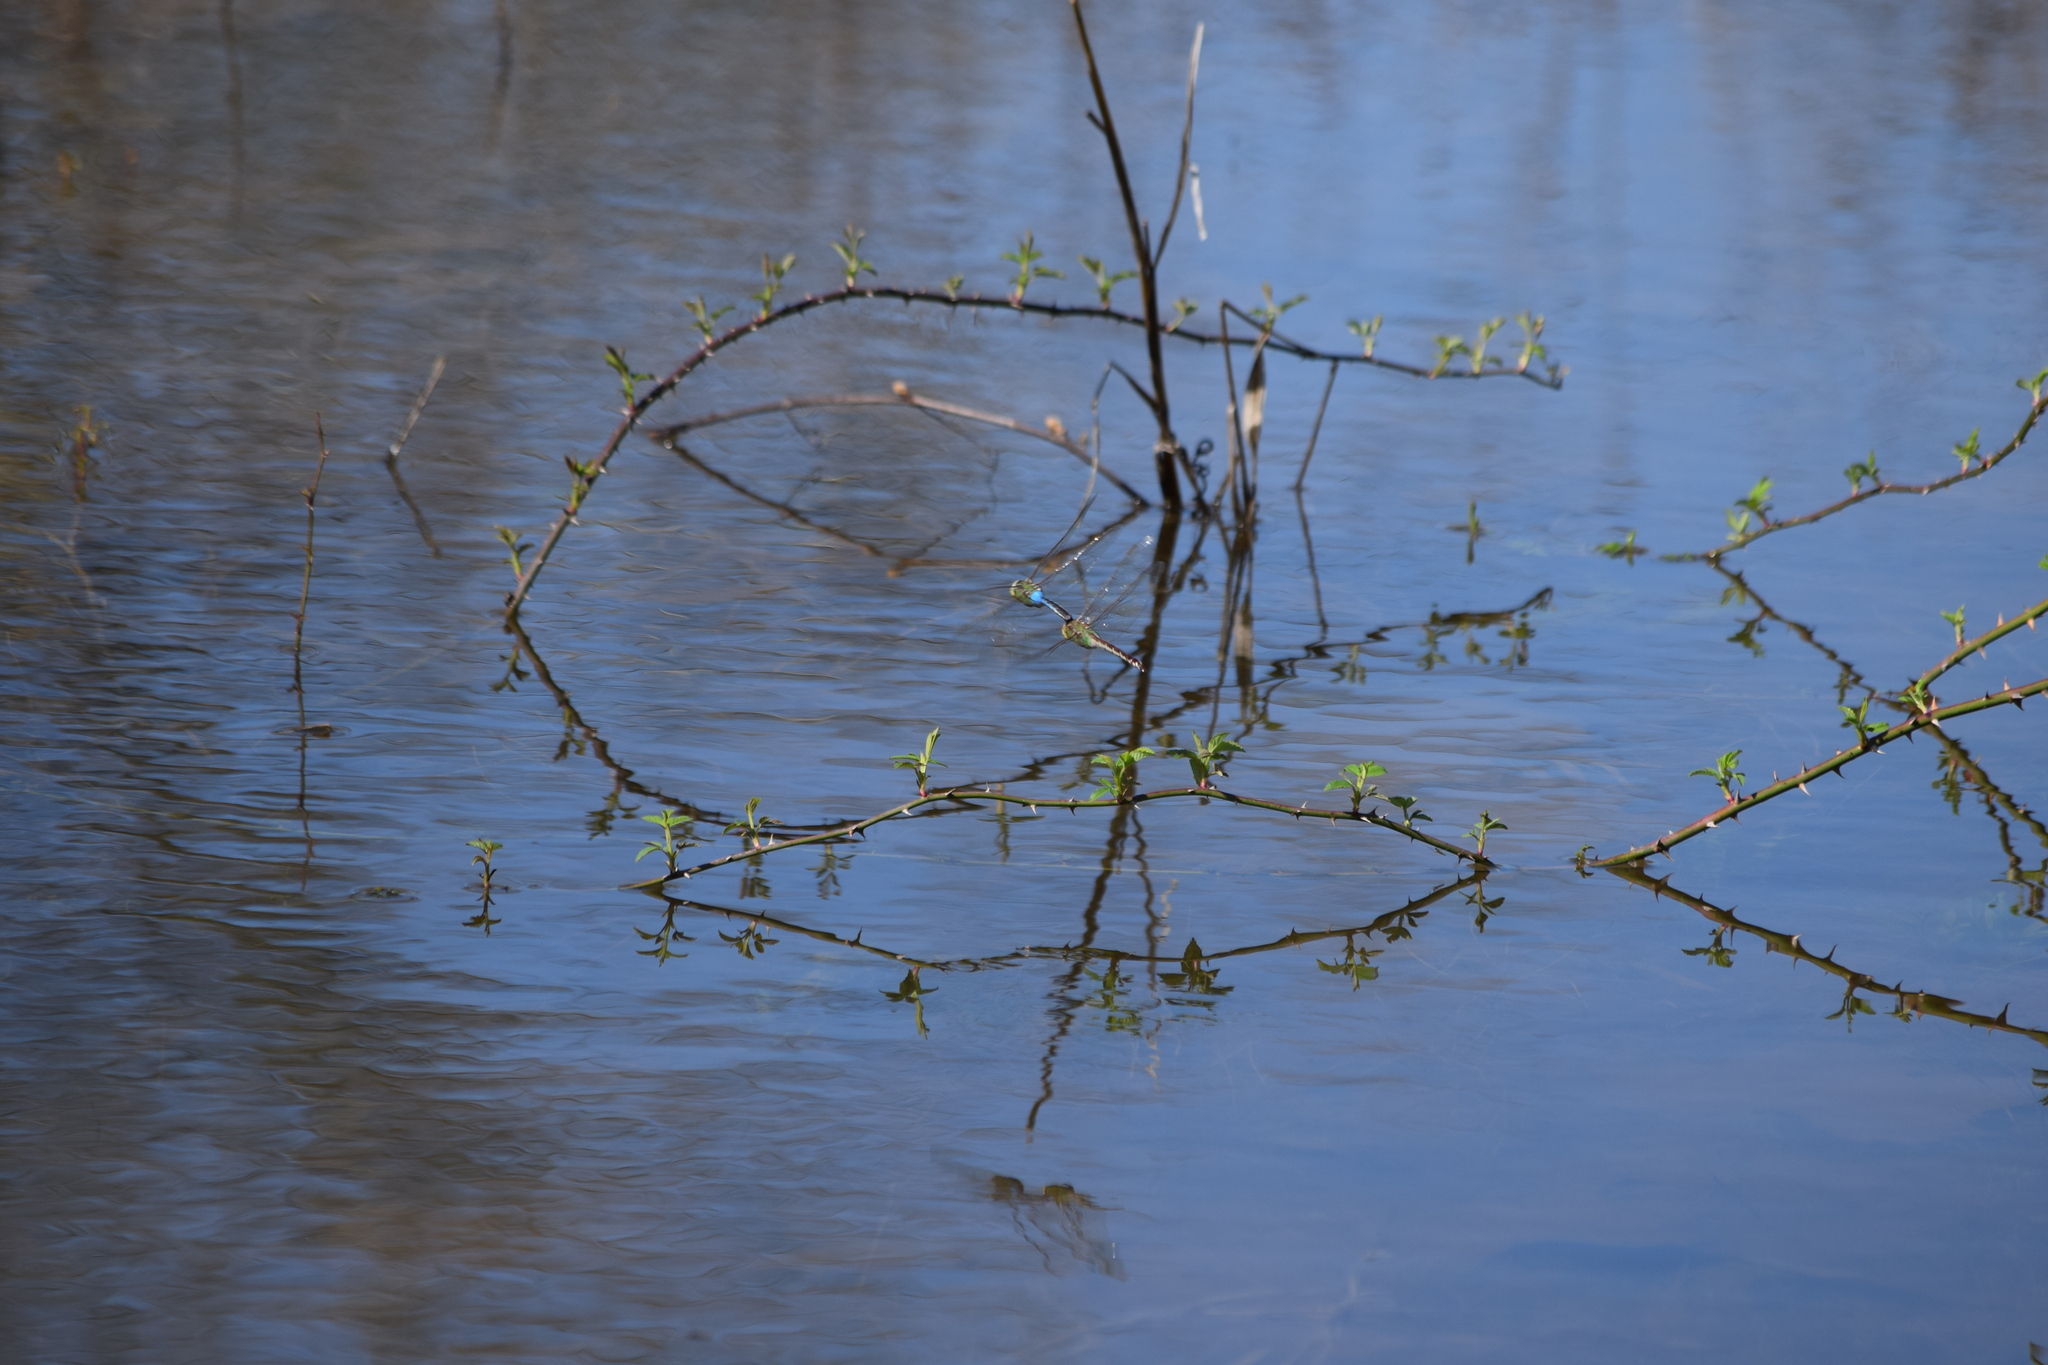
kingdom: Animalia
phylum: Arthropoda
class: Insecta
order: Odonata
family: Aeshnidae
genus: Anax
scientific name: Anax junius
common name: Common green darner
